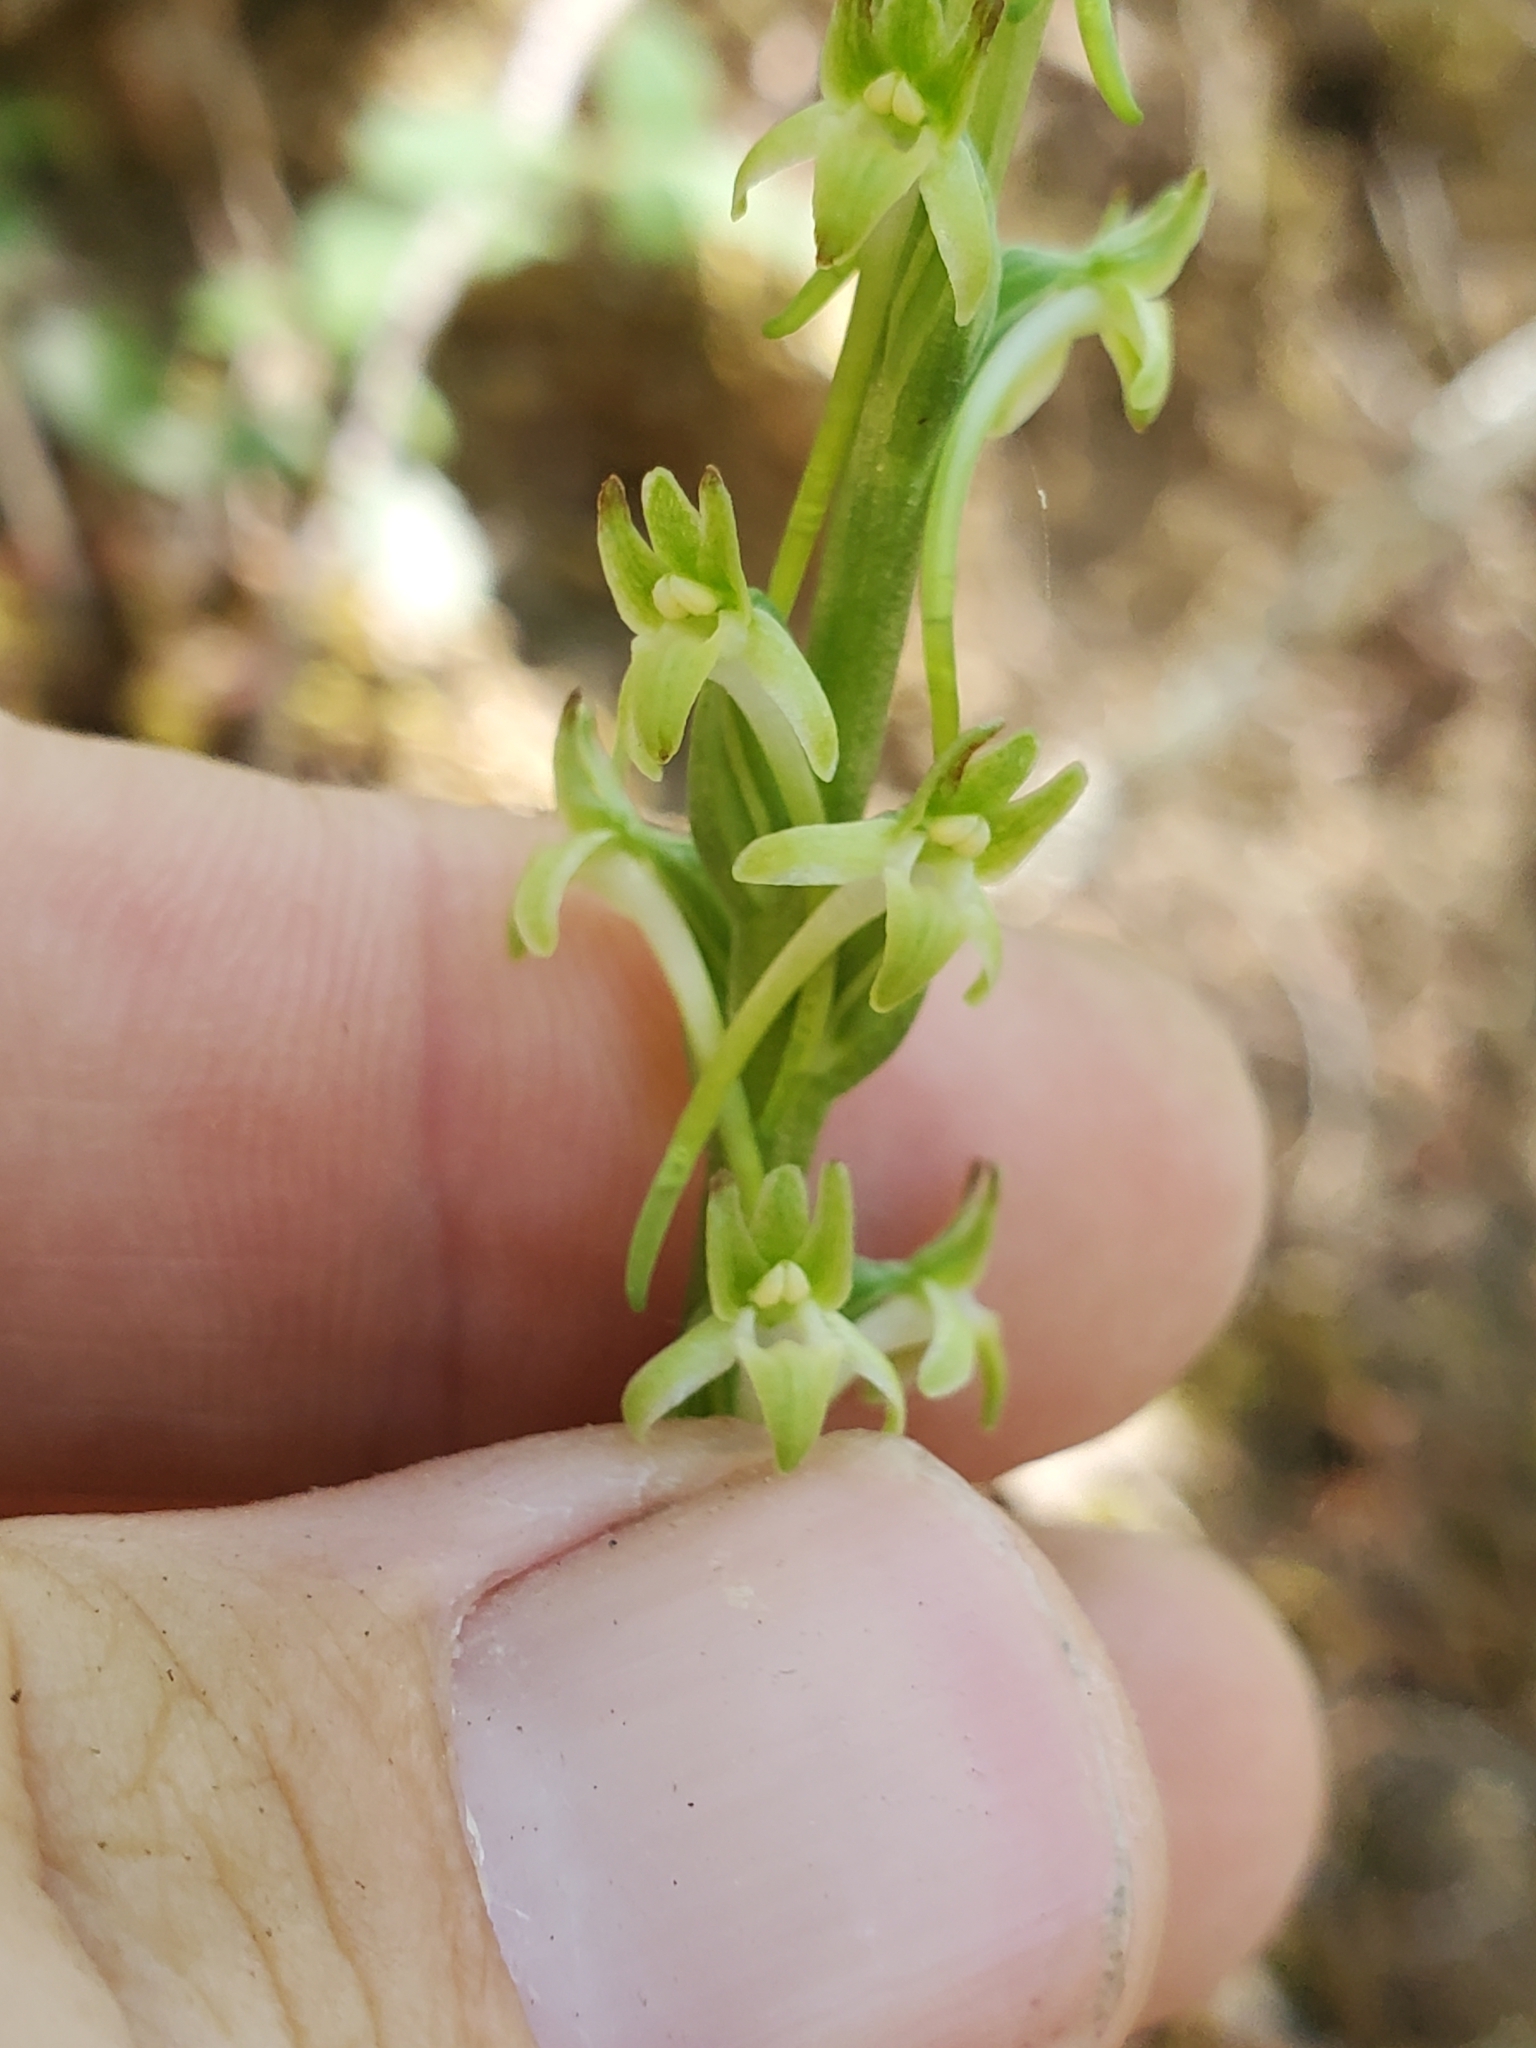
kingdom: Plantae
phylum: Tracheophyta
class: Liliopsida
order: Asparagales
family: Orchidaceae
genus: Platanthera
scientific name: Platanthera elongata
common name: Dense-flowered rein orchid
